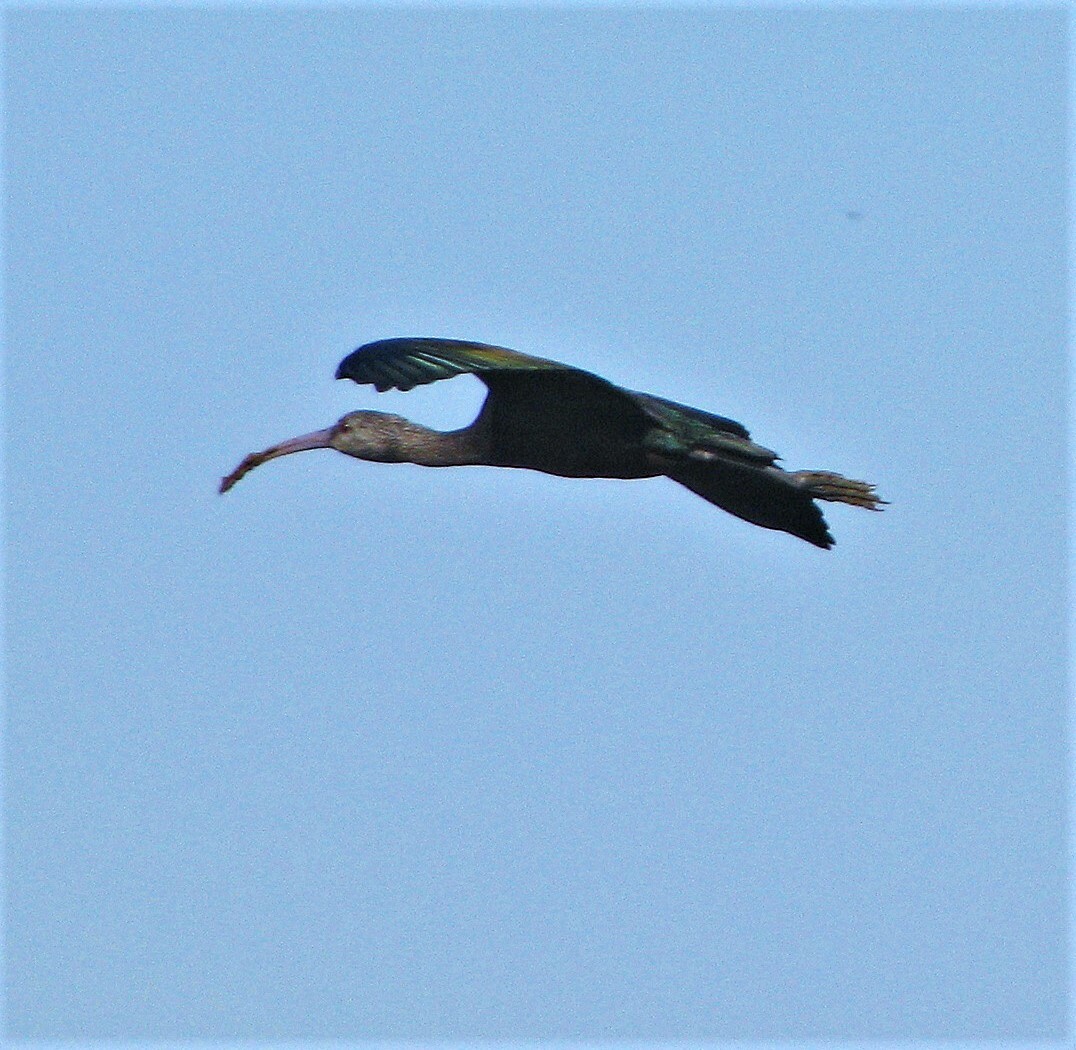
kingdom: Animalia
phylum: Chordata
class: Aves
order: Pelecaniformes
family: Threskiornithidae
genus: Plegadis
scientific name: Plegadis chihi
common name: White-faced ibis
